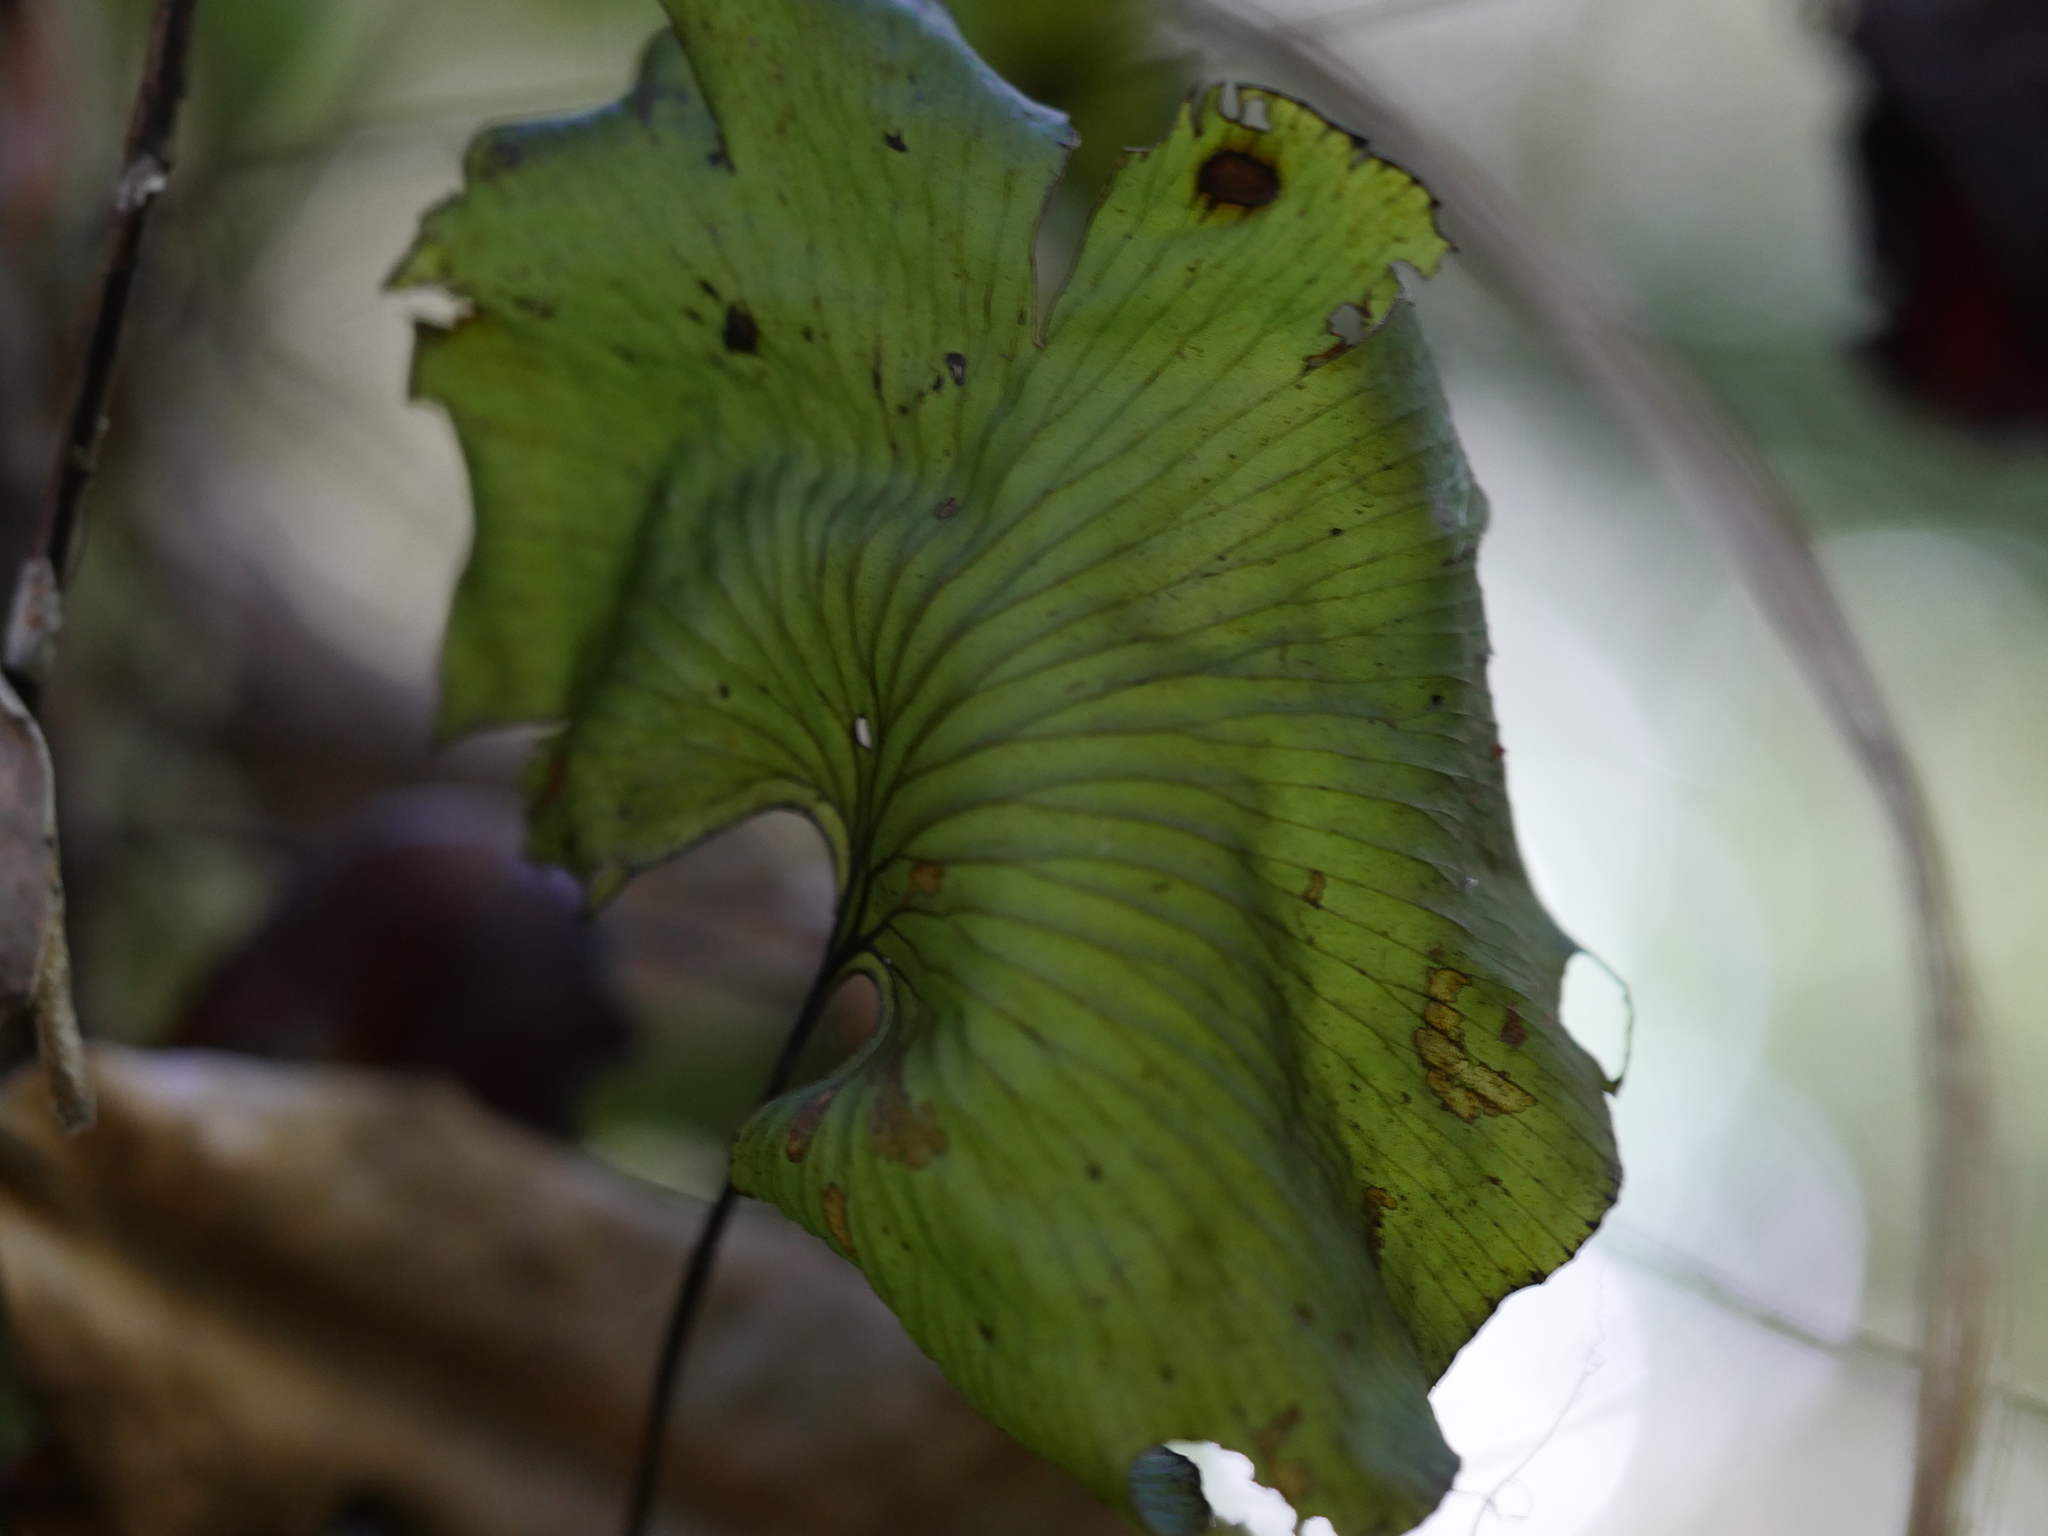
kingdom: Plantae
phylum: Tracheophyta
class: Polypodiopsida
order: Hymenophyllales
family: Hymenophyllaceae
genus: Hymenophyllum
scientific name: Hymenophyllum nephrophyllum
